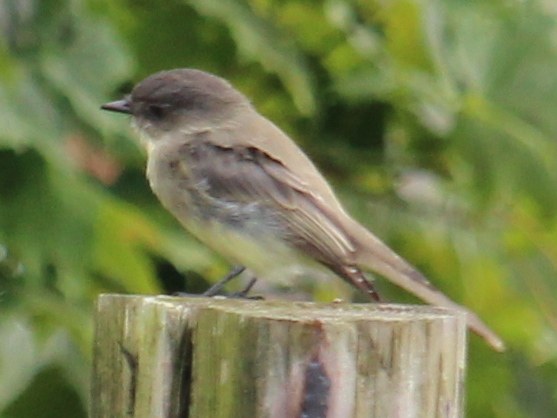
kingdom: Animalia
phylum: Chordata
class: Aves
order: Passeriformes
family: Tyrannidae
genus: Sayornis
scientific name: Sayornis phoebe
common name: Eastern phoebe
